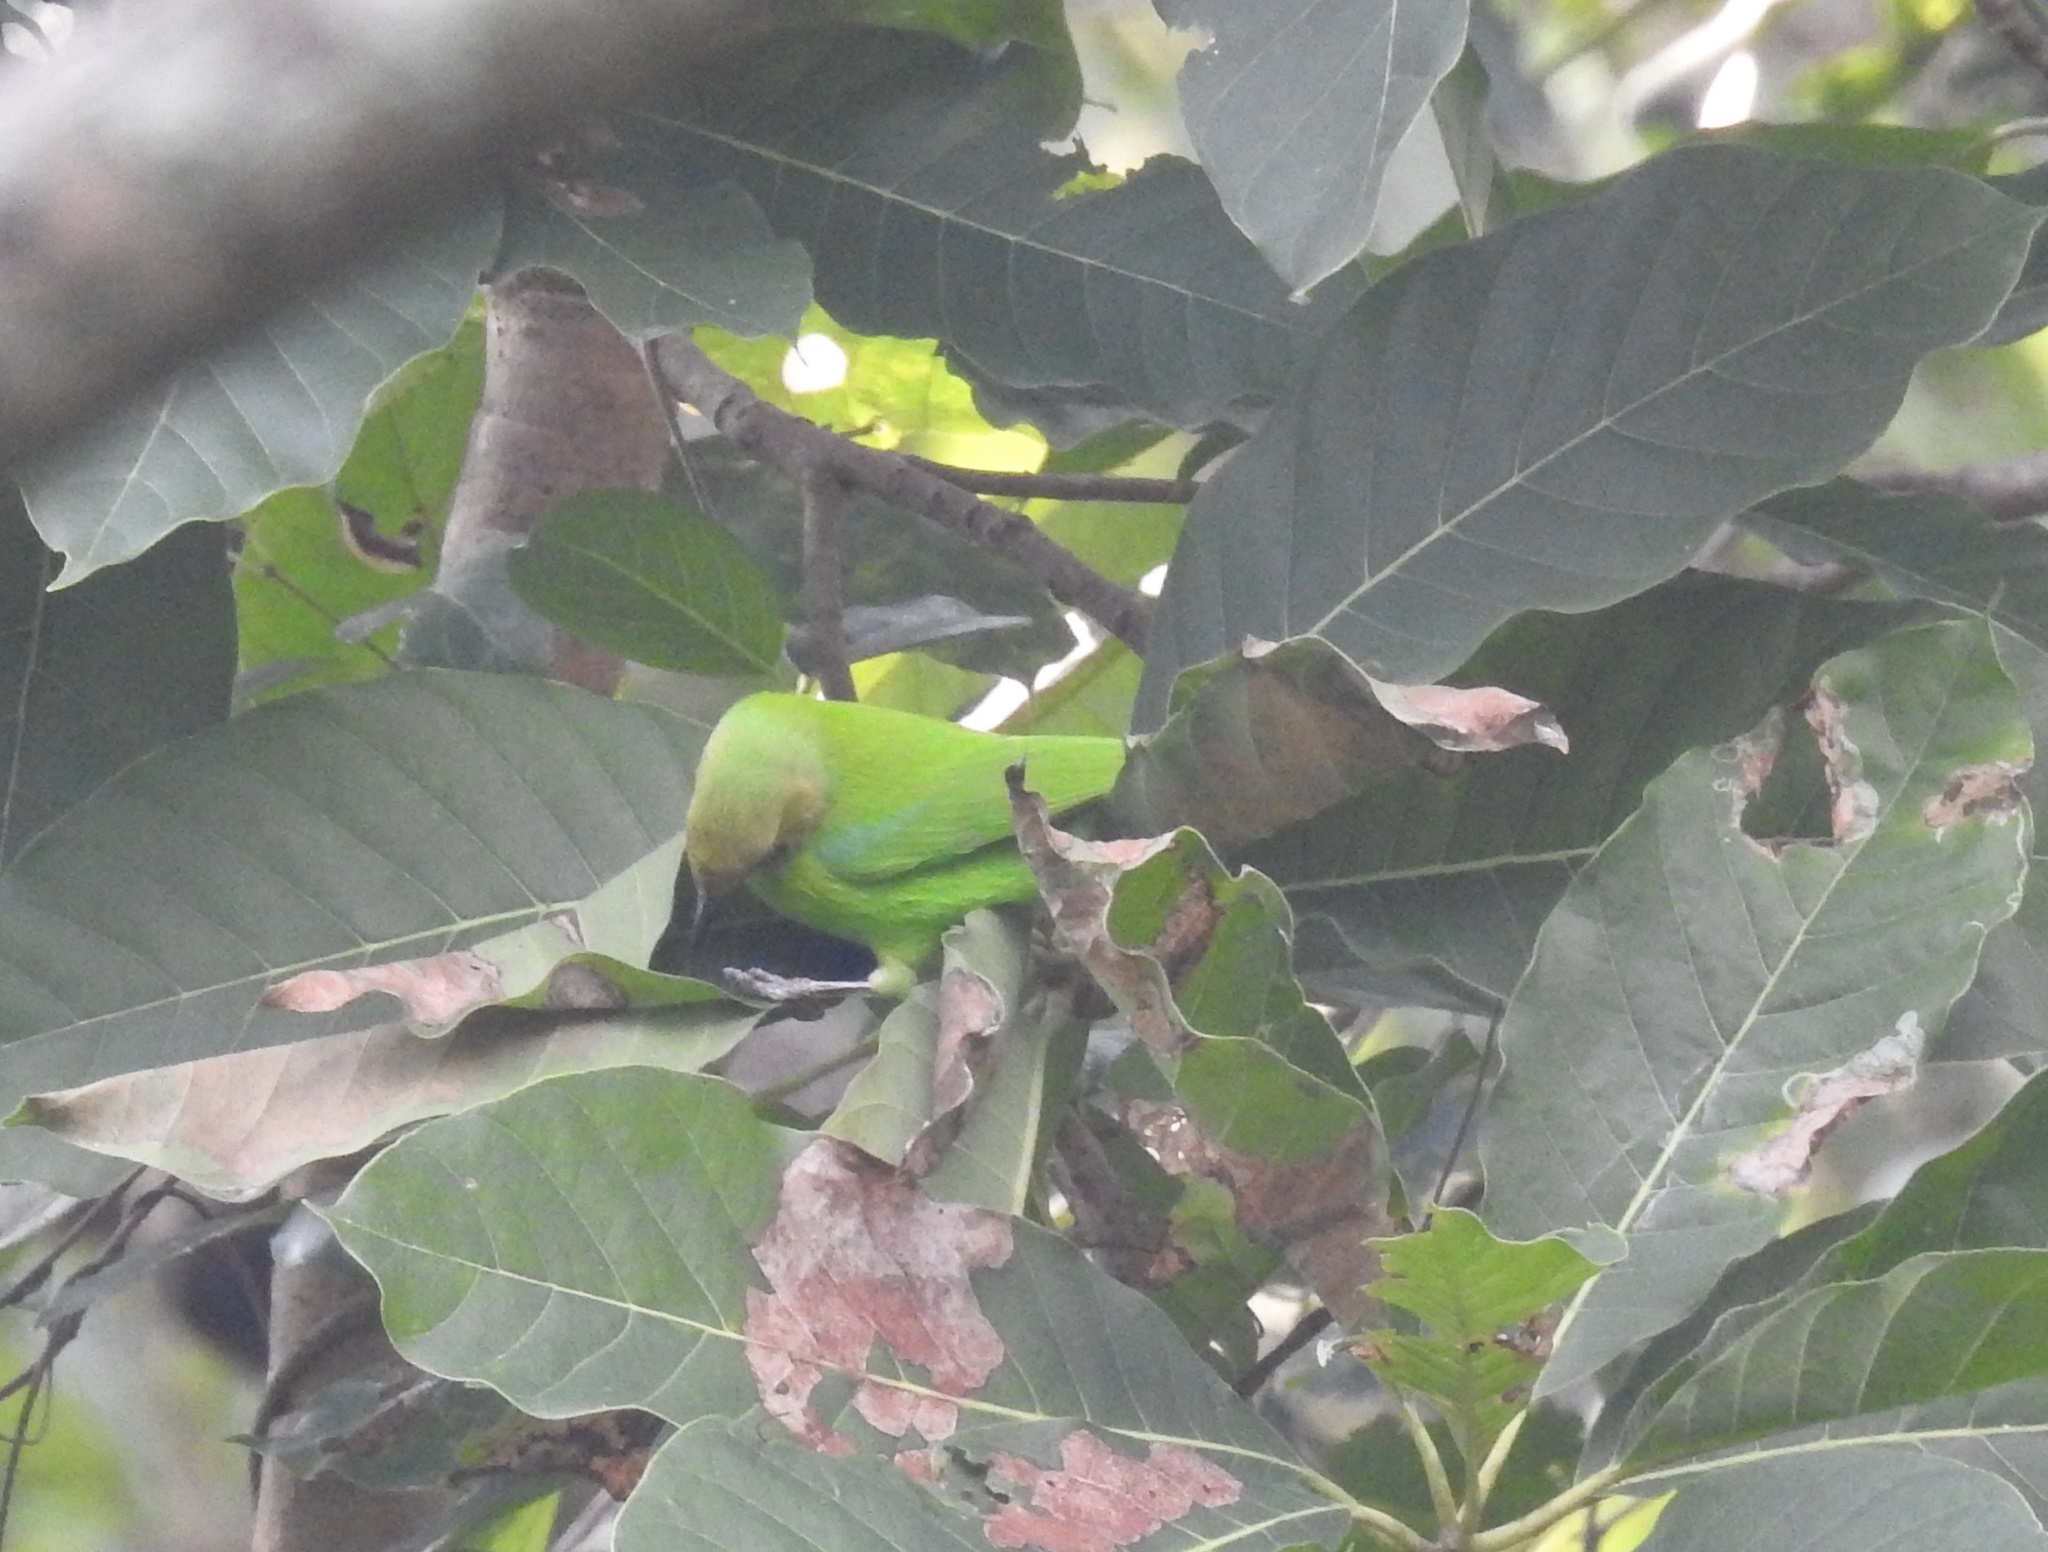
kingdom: Animalia
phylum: Chordata
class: Aves
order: Passeriformes
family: Chloropseidae
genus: Chloropsis
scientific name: Chloropsis jerdoni
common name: Jerdon's leafbird
